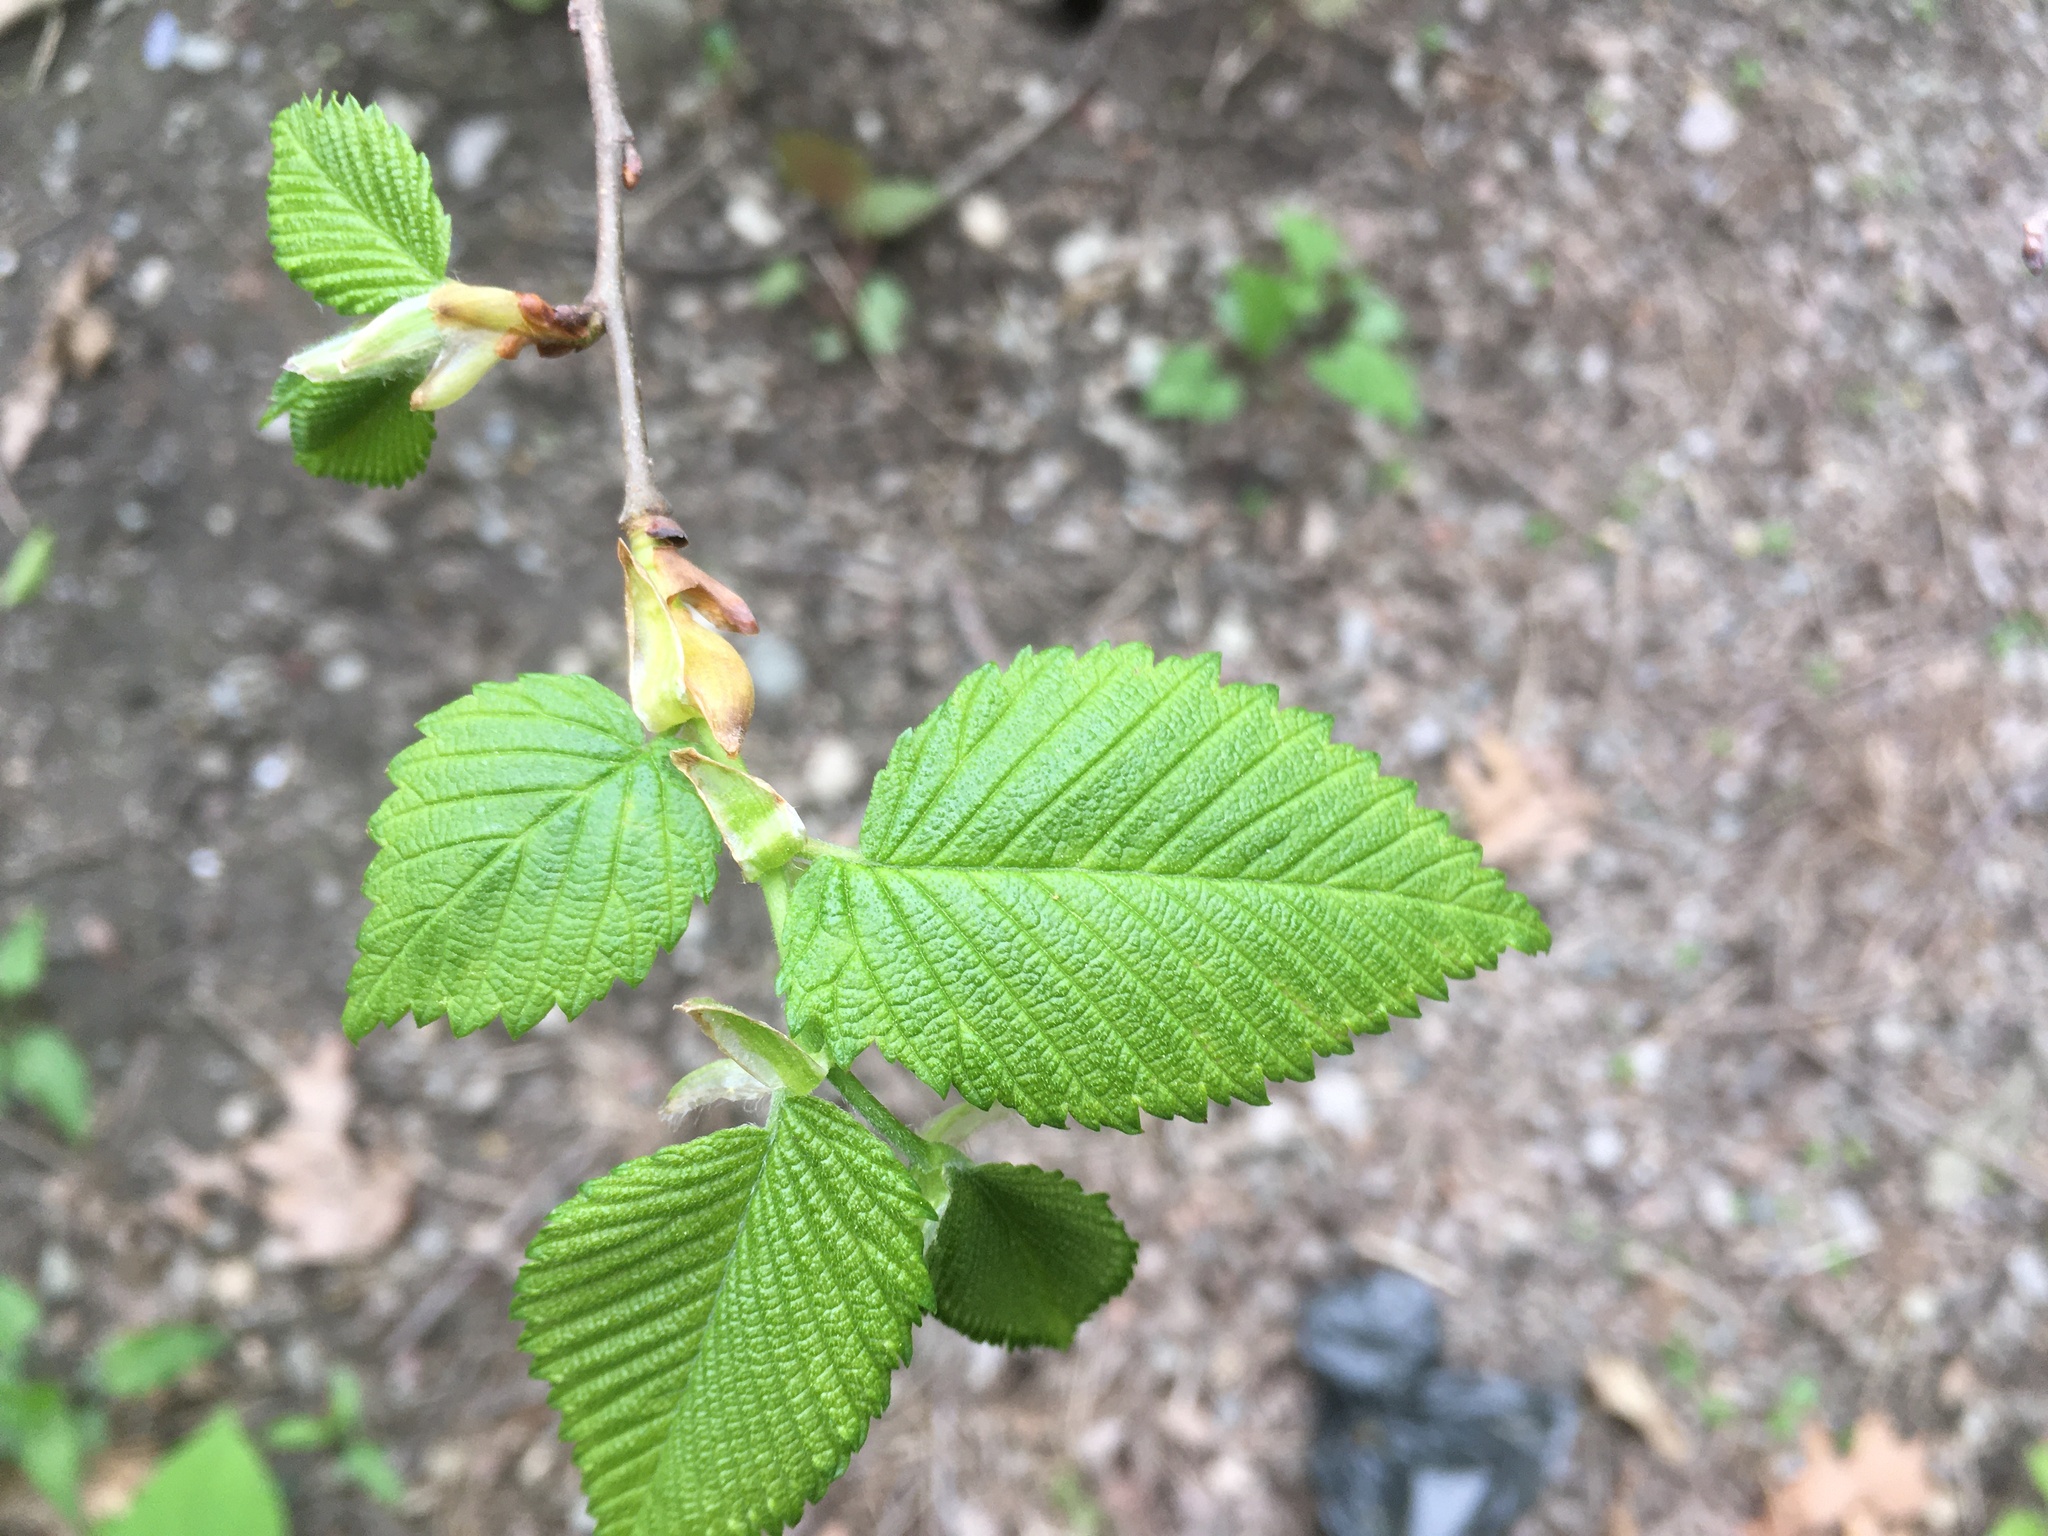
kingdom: Plantae
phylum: Tracheophyta
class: Magnoliopsida
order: Rosales
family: Ulmaceae
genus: Ulmus
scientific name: Ulmus americana
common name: American elm
